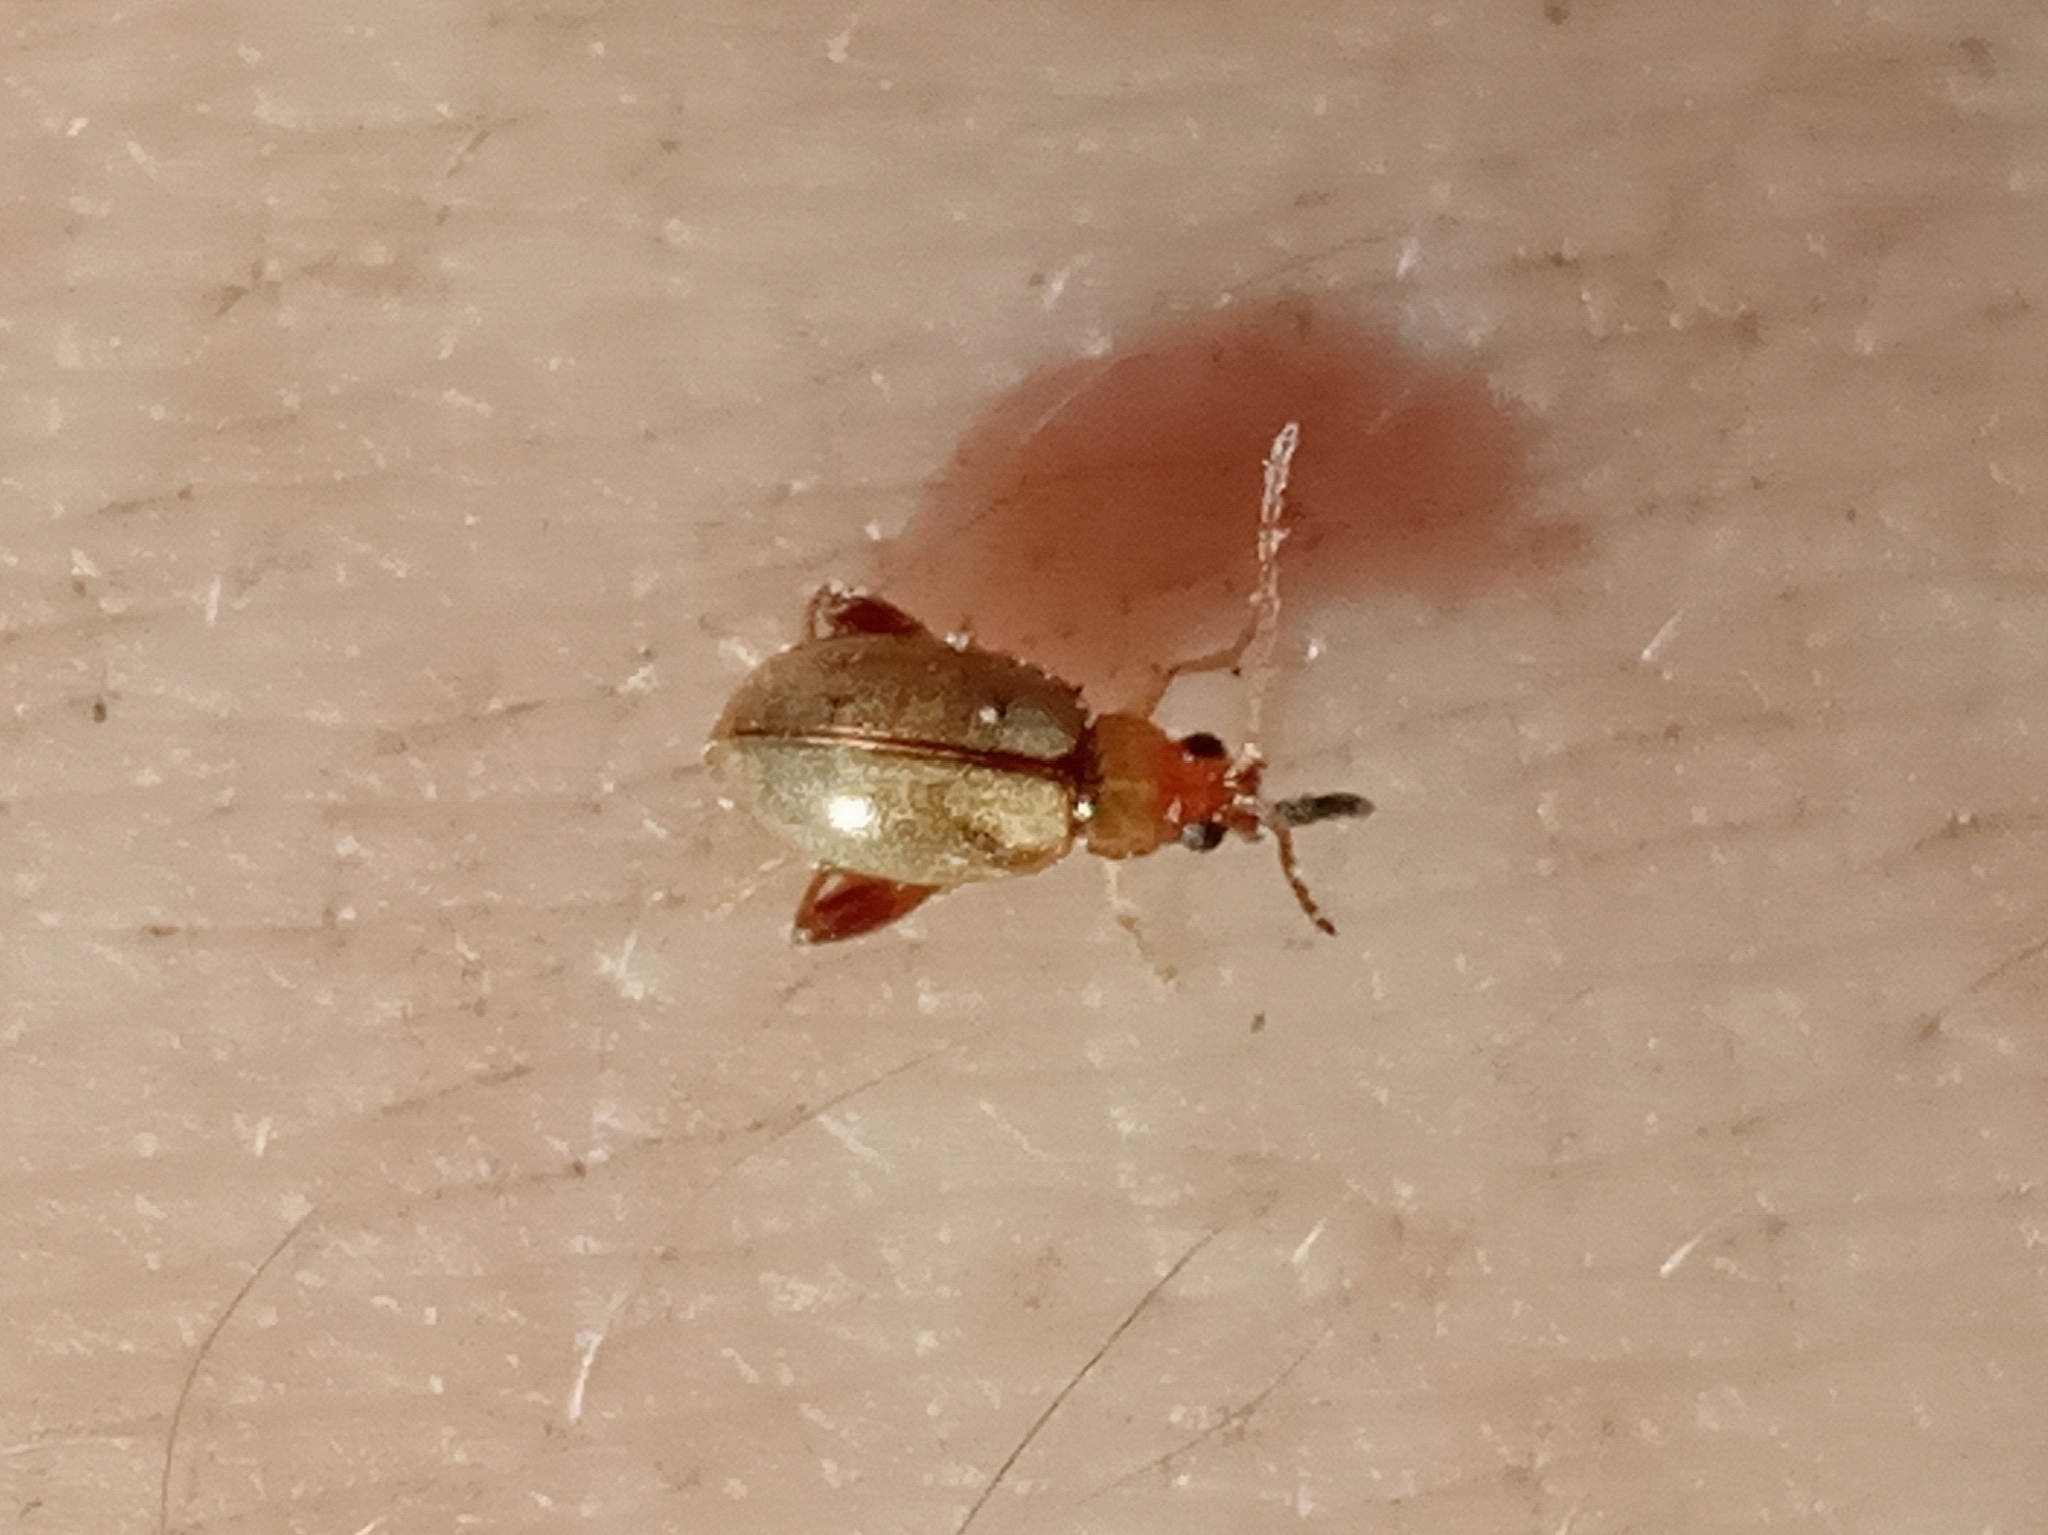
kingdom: Animalia
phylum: Arthropoda
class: Insecta
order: Coleoptera
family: Chrysomelidae
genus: Longitarsus
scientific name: Longitarsus
